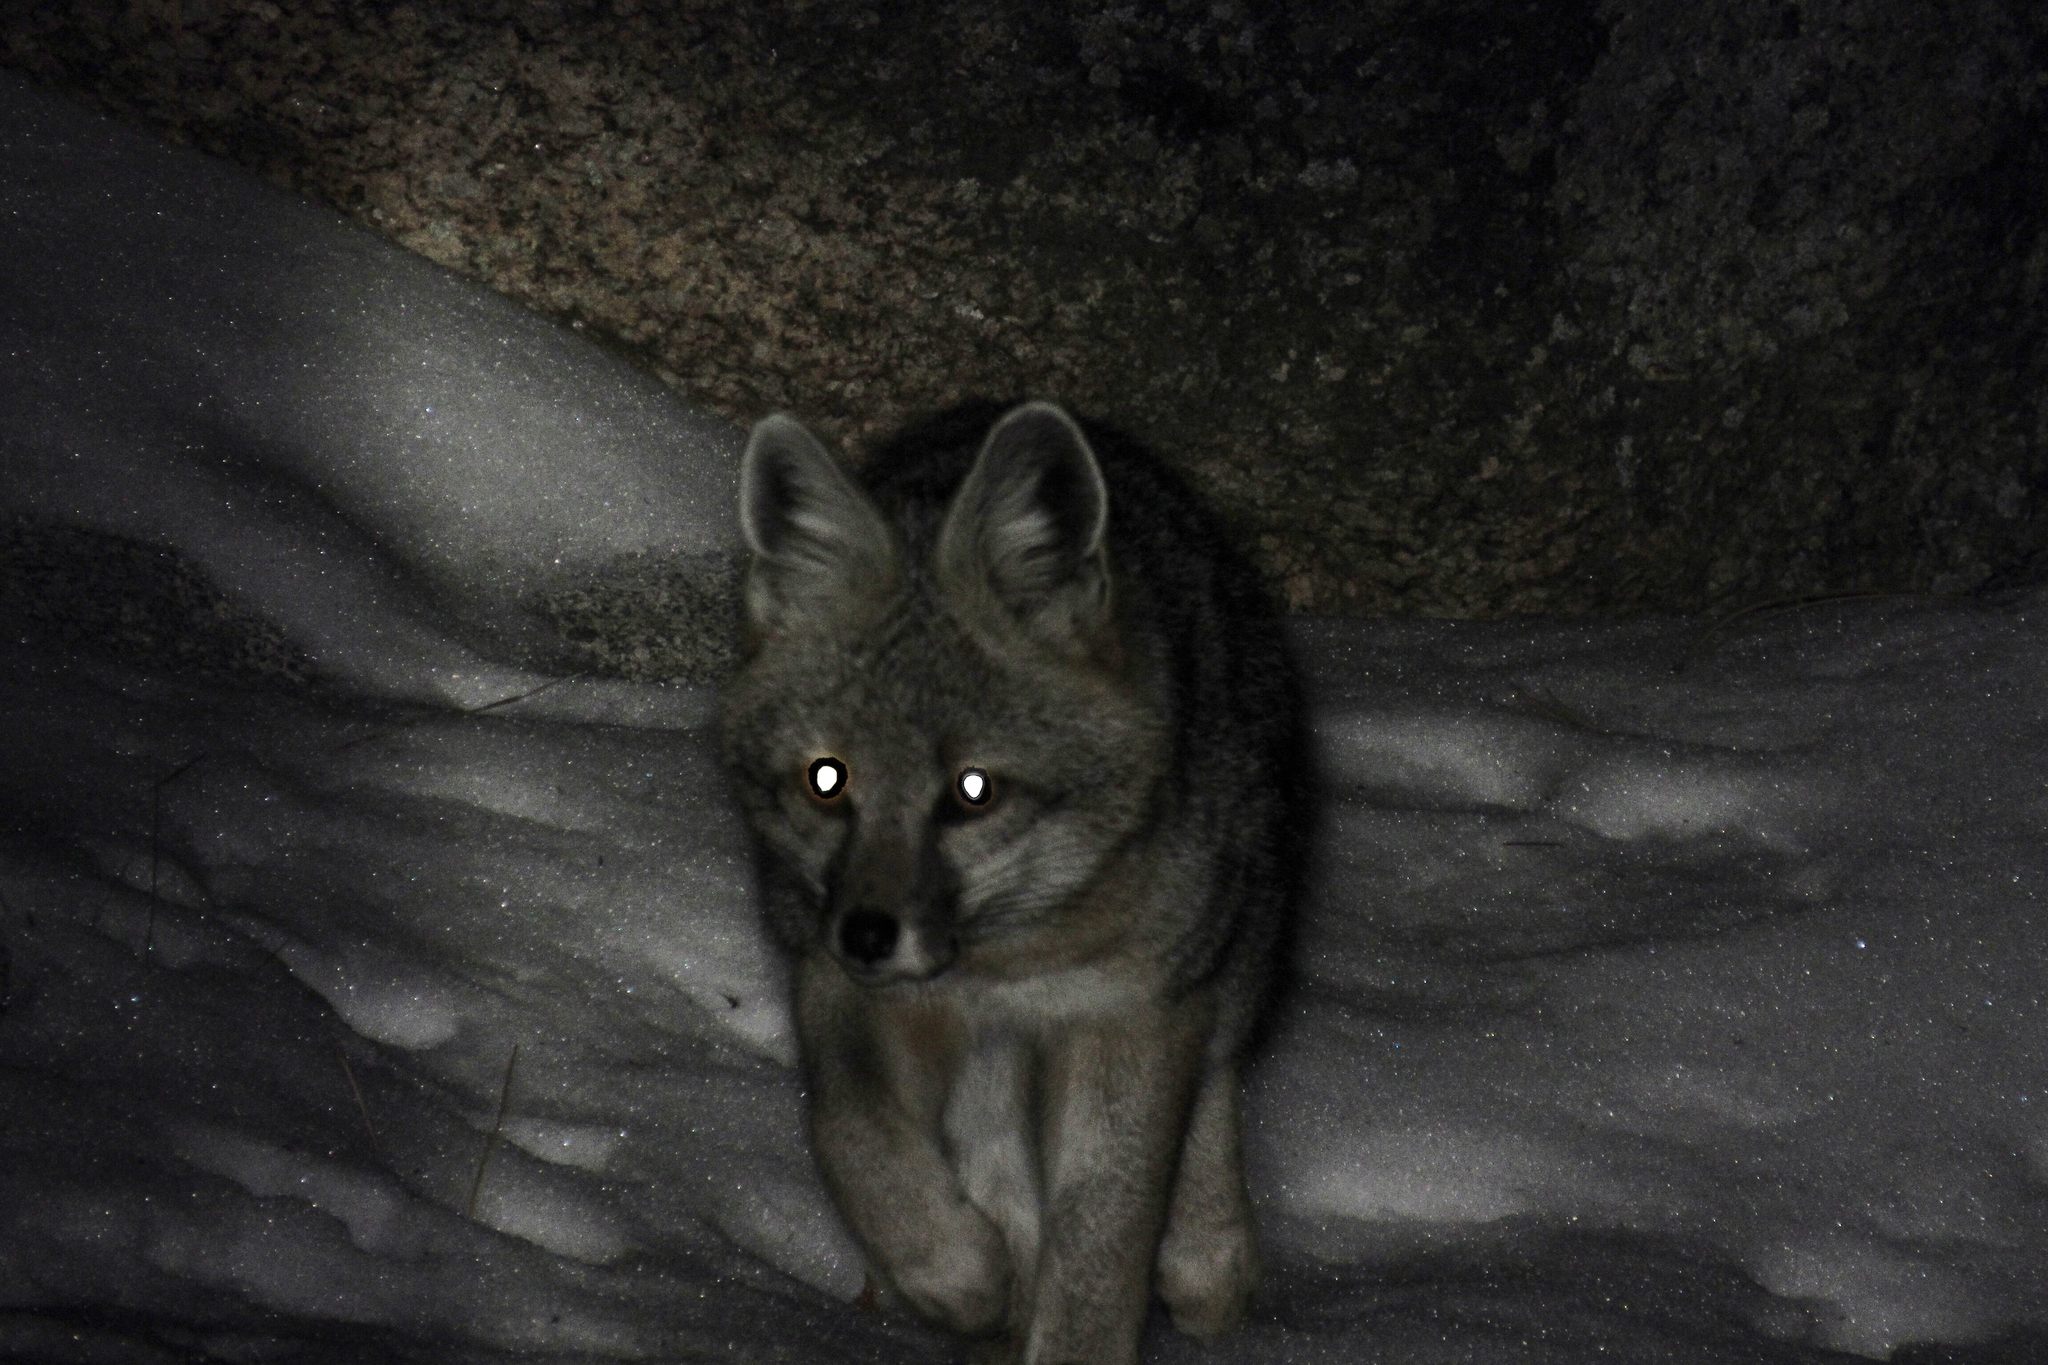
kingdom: Animalia
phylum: Chordata
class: Mammalia
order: Carnivora
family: Canidae
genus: Urocyon
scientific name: Urocyon cinereoargenteus
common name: Gray fox
